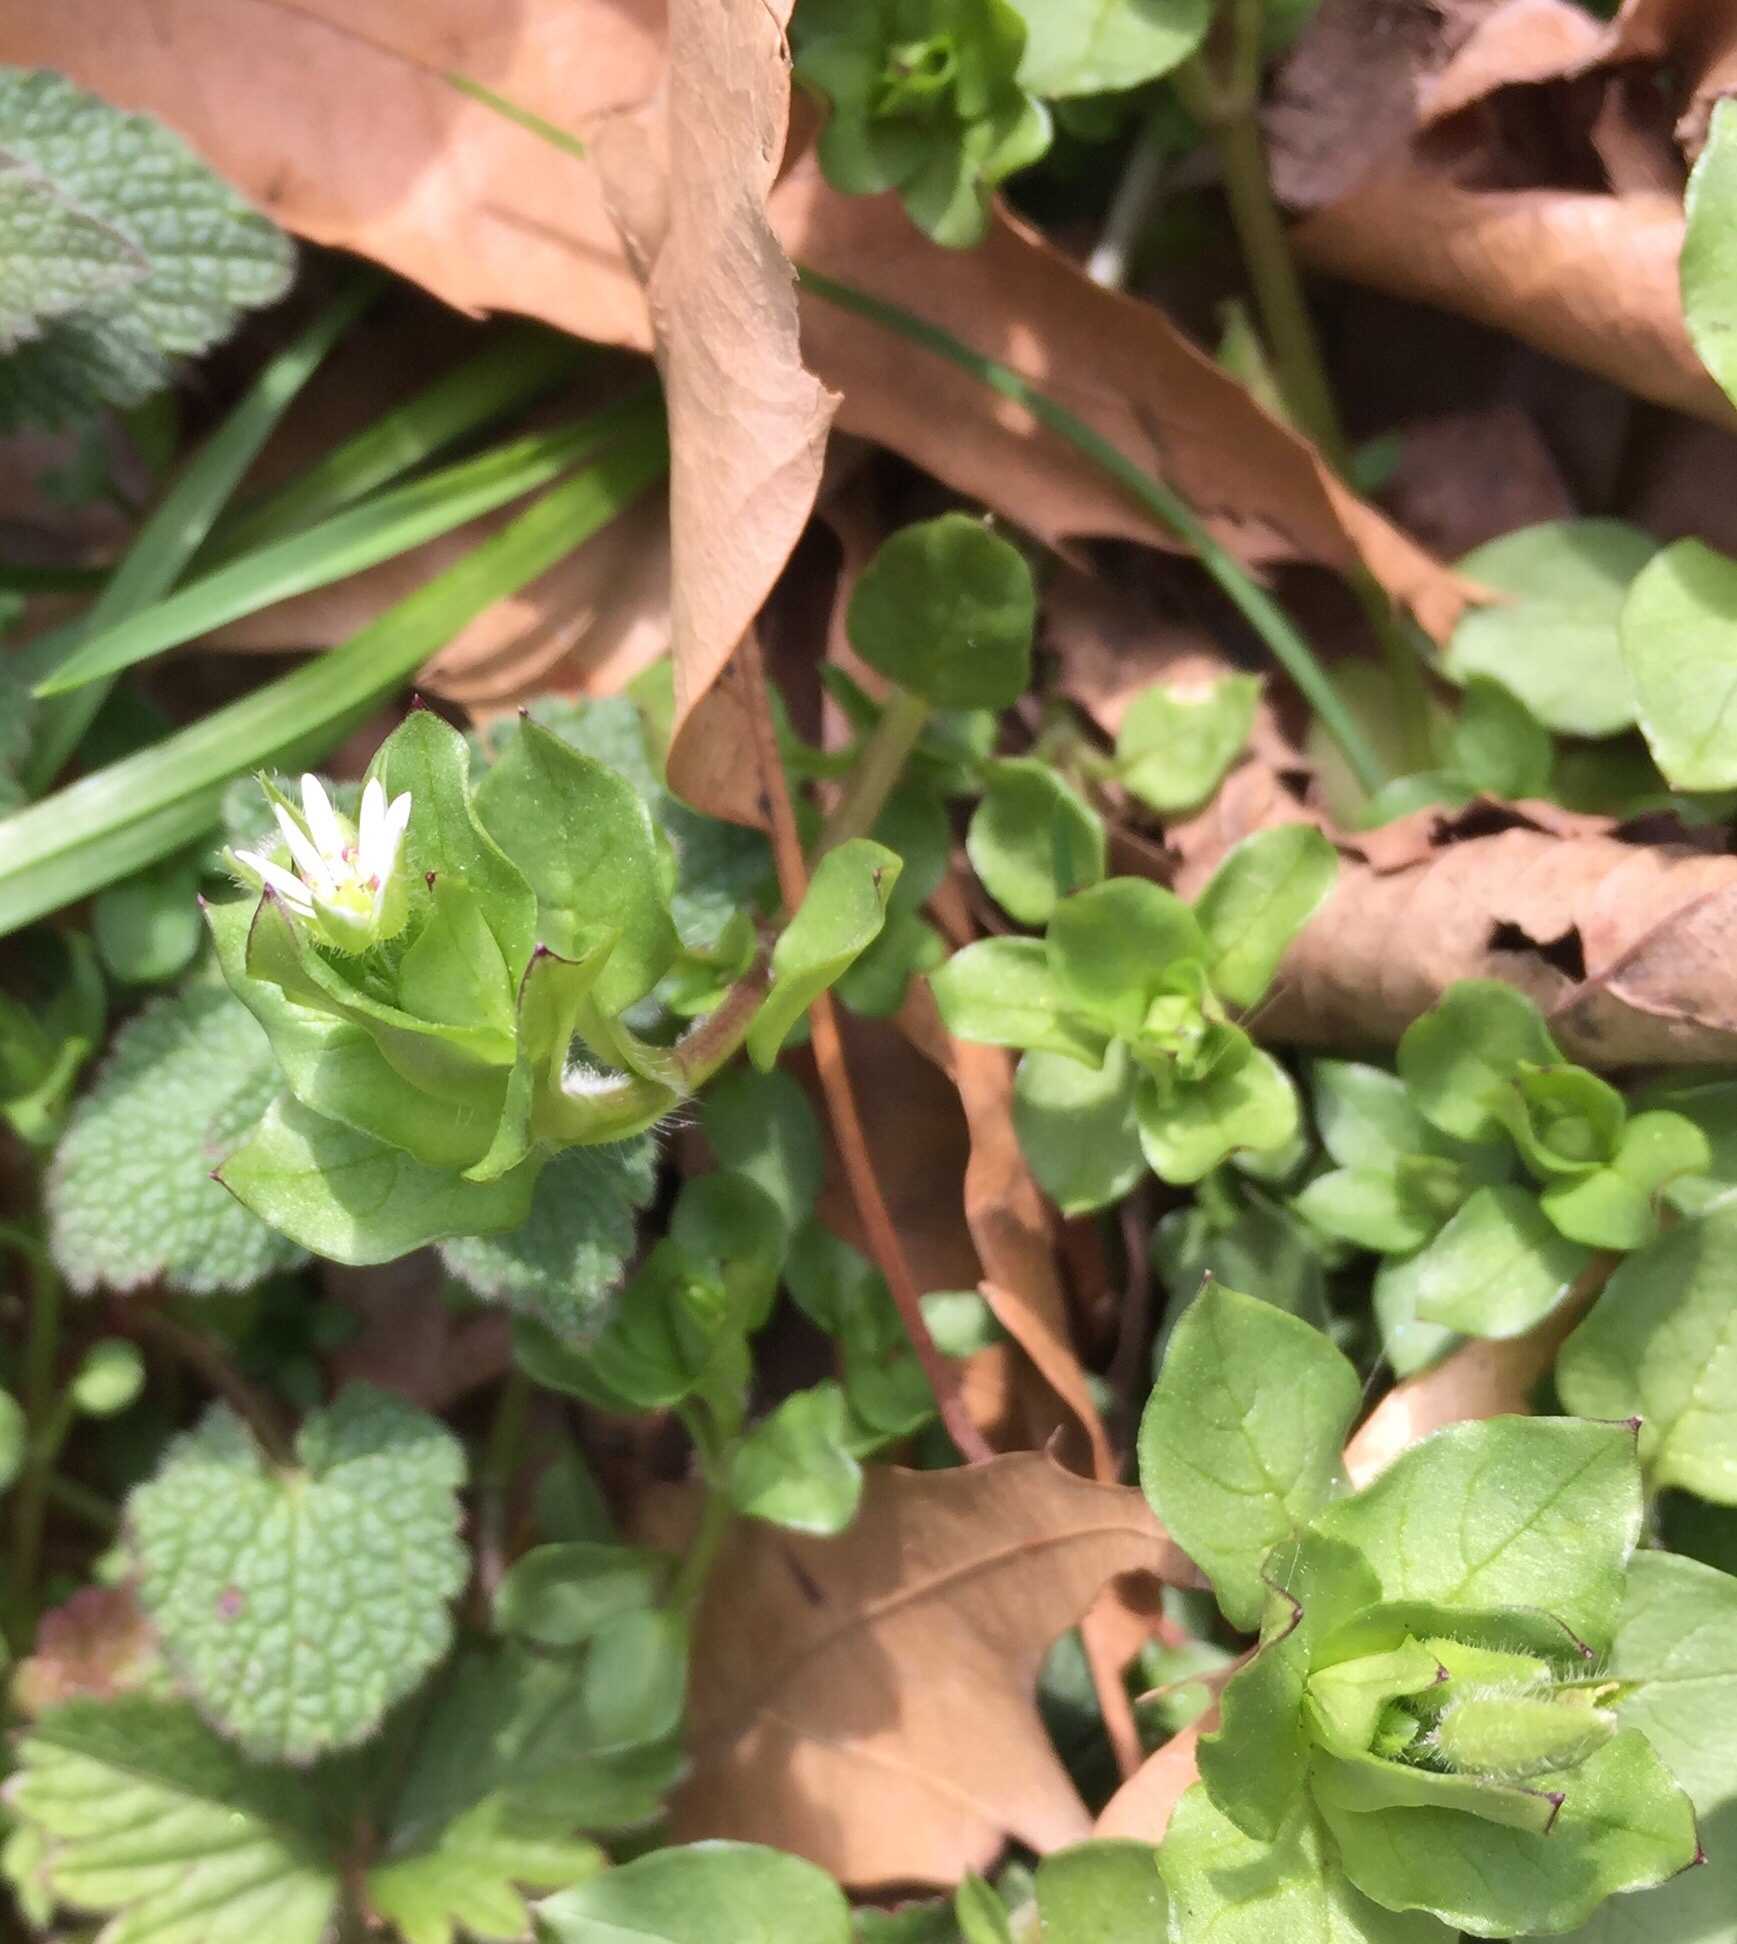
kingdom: Plantae
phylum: Tracheophyta
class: Magnoliopsida
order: Caryophyllales
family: Caryophyllaceae
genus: Stellaria
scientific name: Stellaria media
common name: Common chickweed
